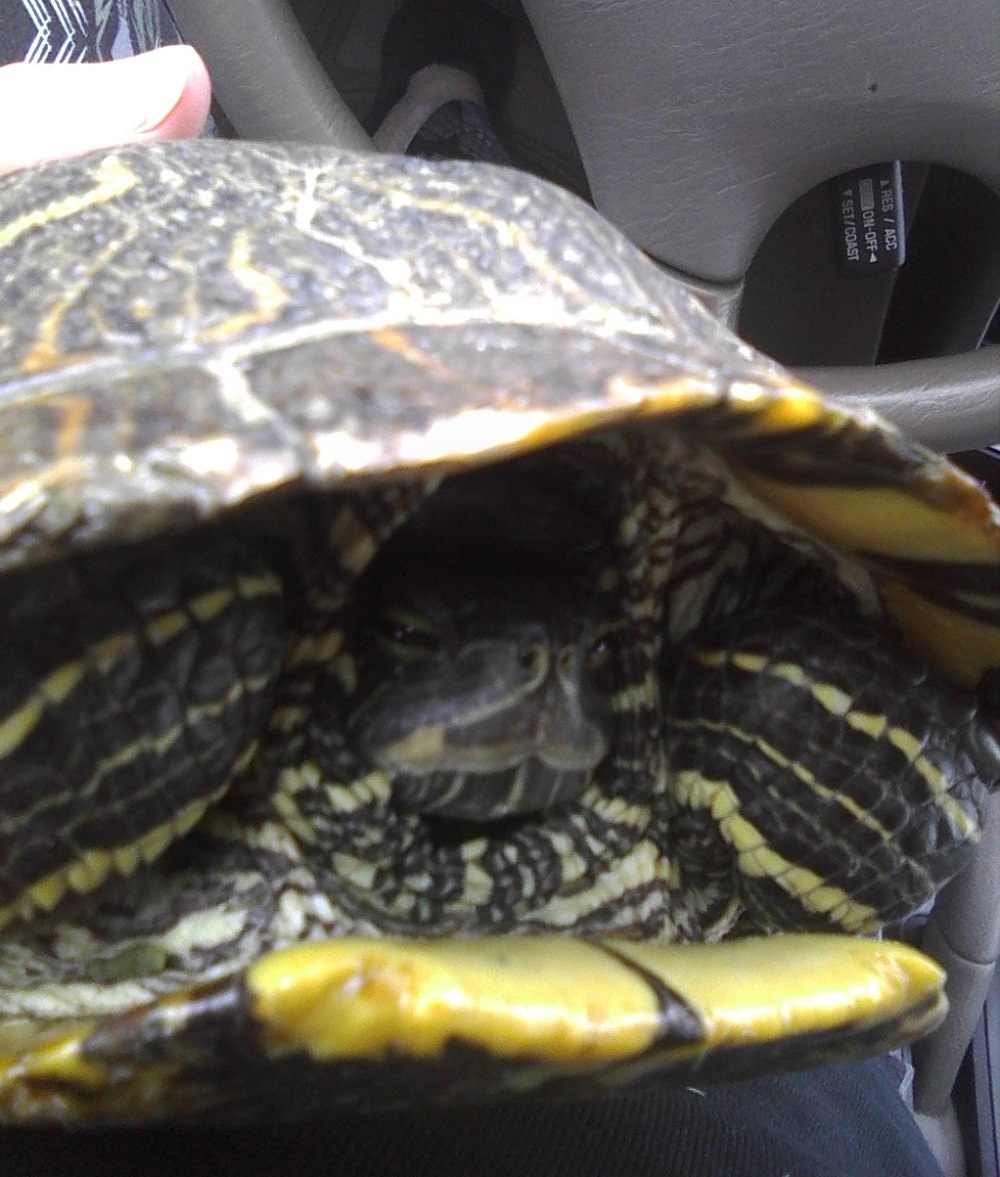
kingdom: Animalia
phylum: Chordata
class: Testudines
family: Emydidae
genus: Trachemys
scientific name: Trachemys scripta
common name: Slider
